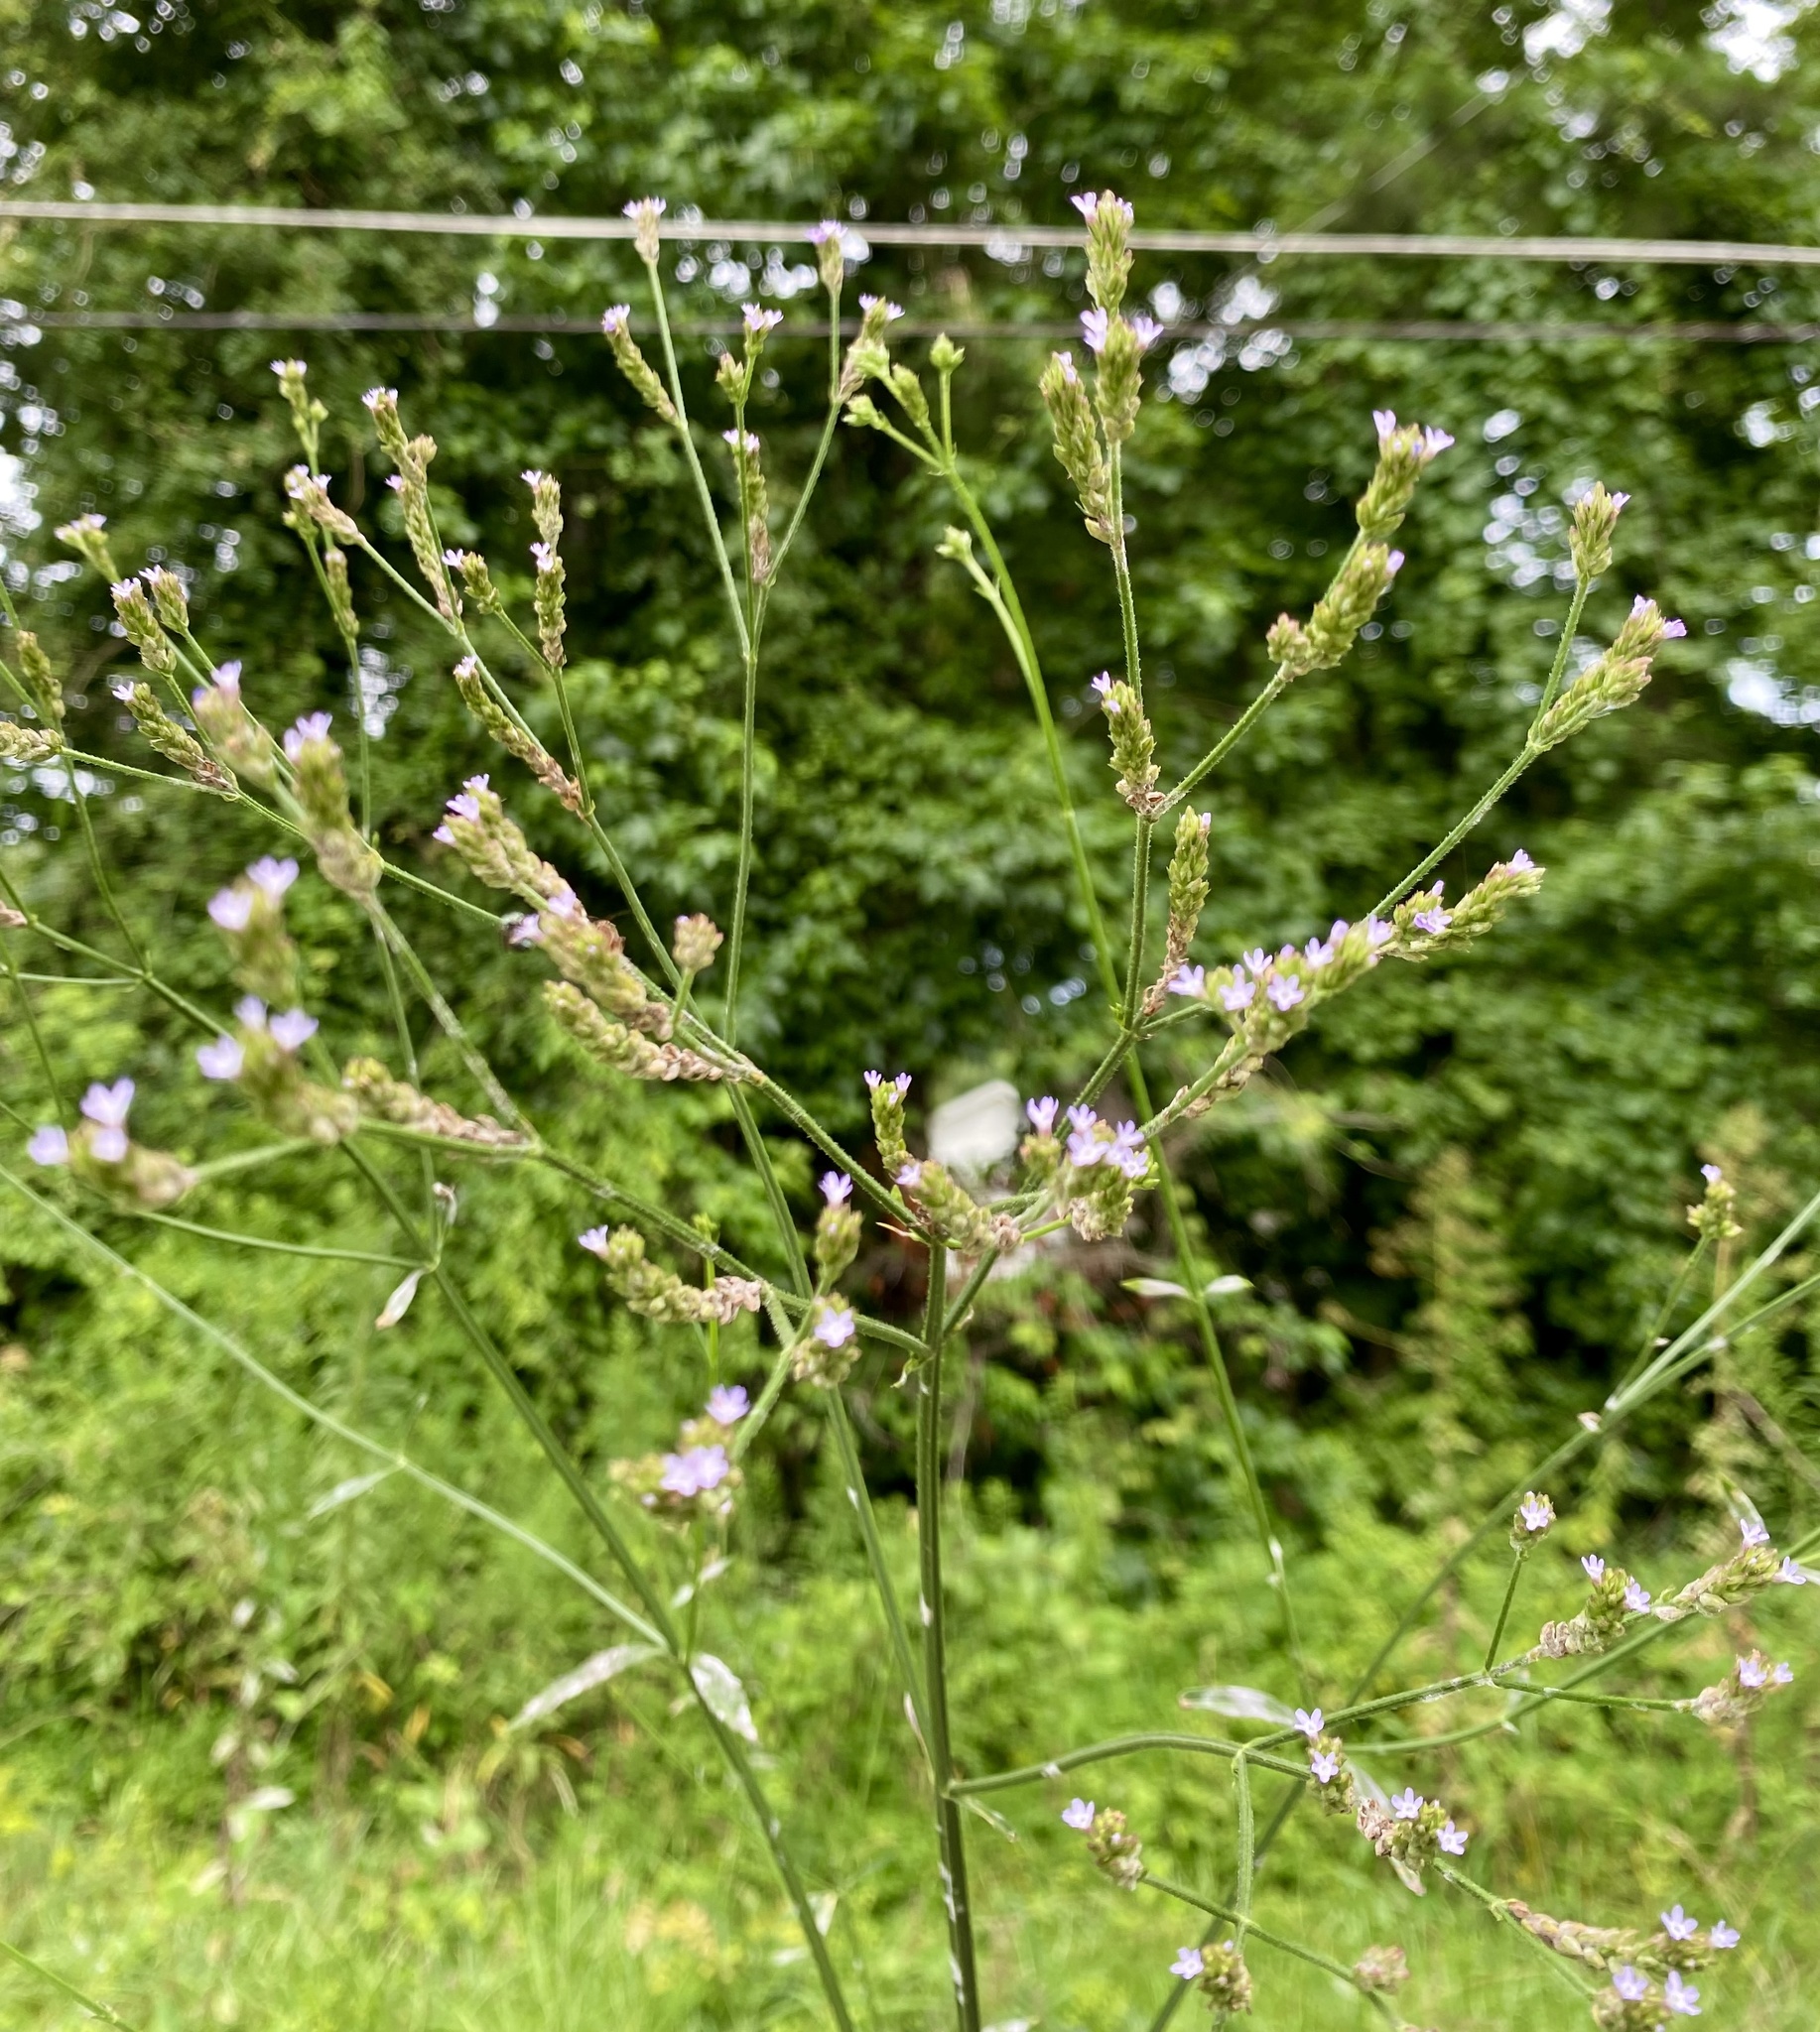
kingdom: Plantae
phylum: Tracheophyta
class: Magnoliopsida
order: Lamiales
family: Verbenaceae
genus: Verbena
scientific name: Verbena brasiliensis
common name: Brazilian vervain
